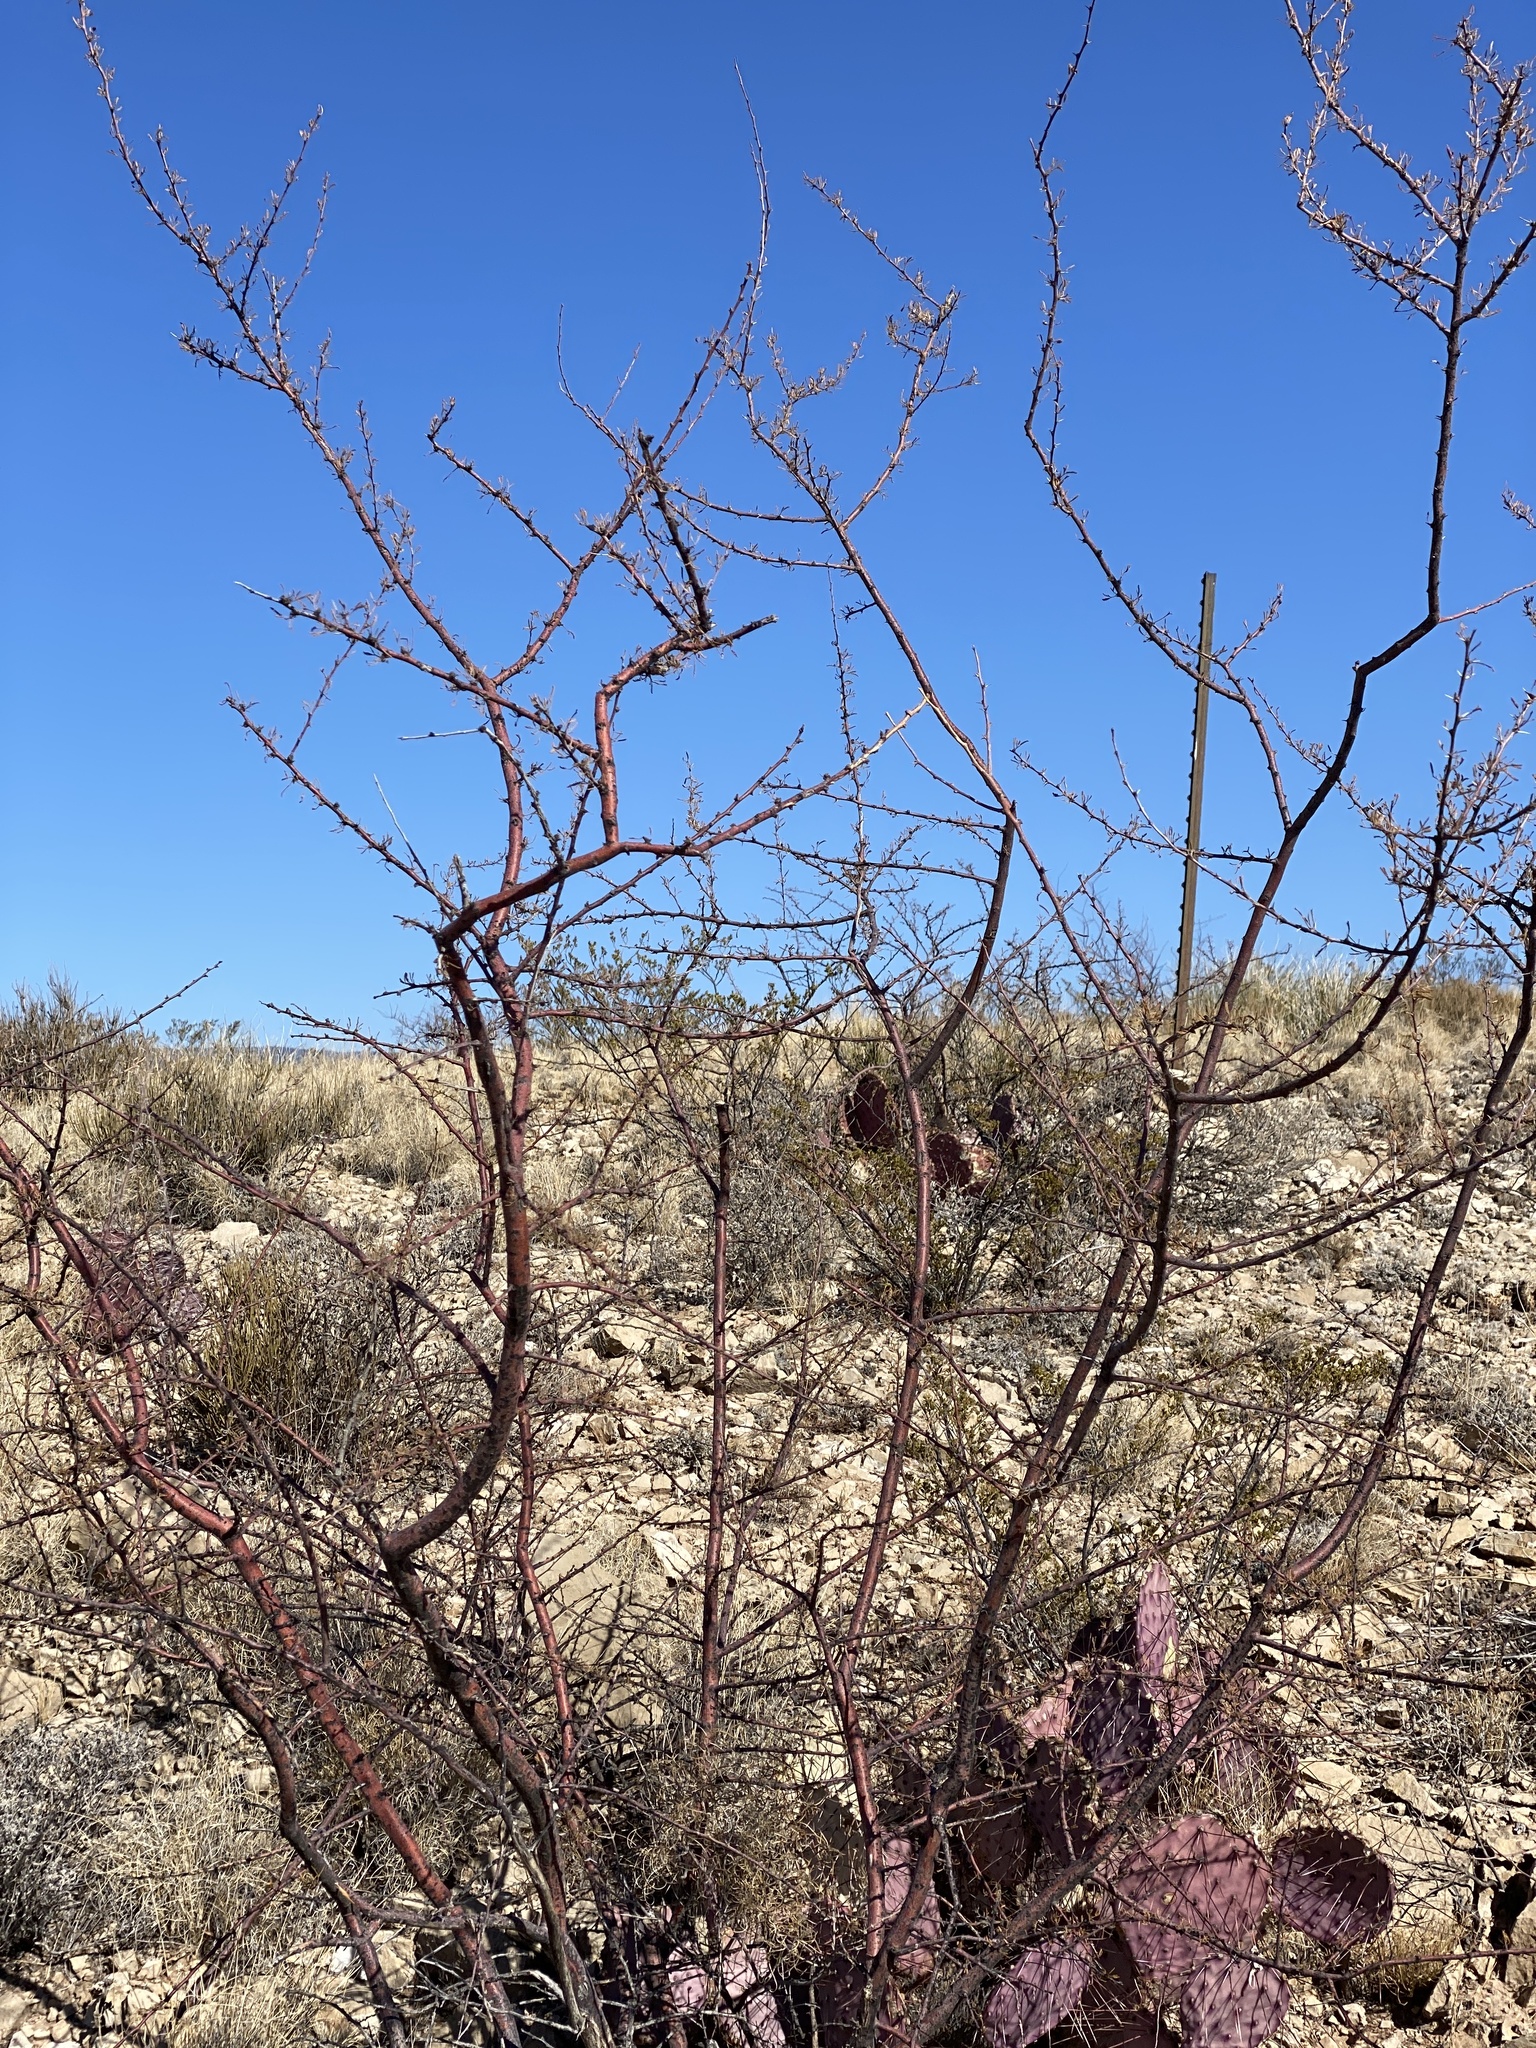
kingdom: Plantae
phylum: Tracheophyta
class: Magnoliopsida
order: Fabales
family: Fabaceae
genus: Vachellia
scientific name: Vachellia constricta
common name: Mescat acacia
